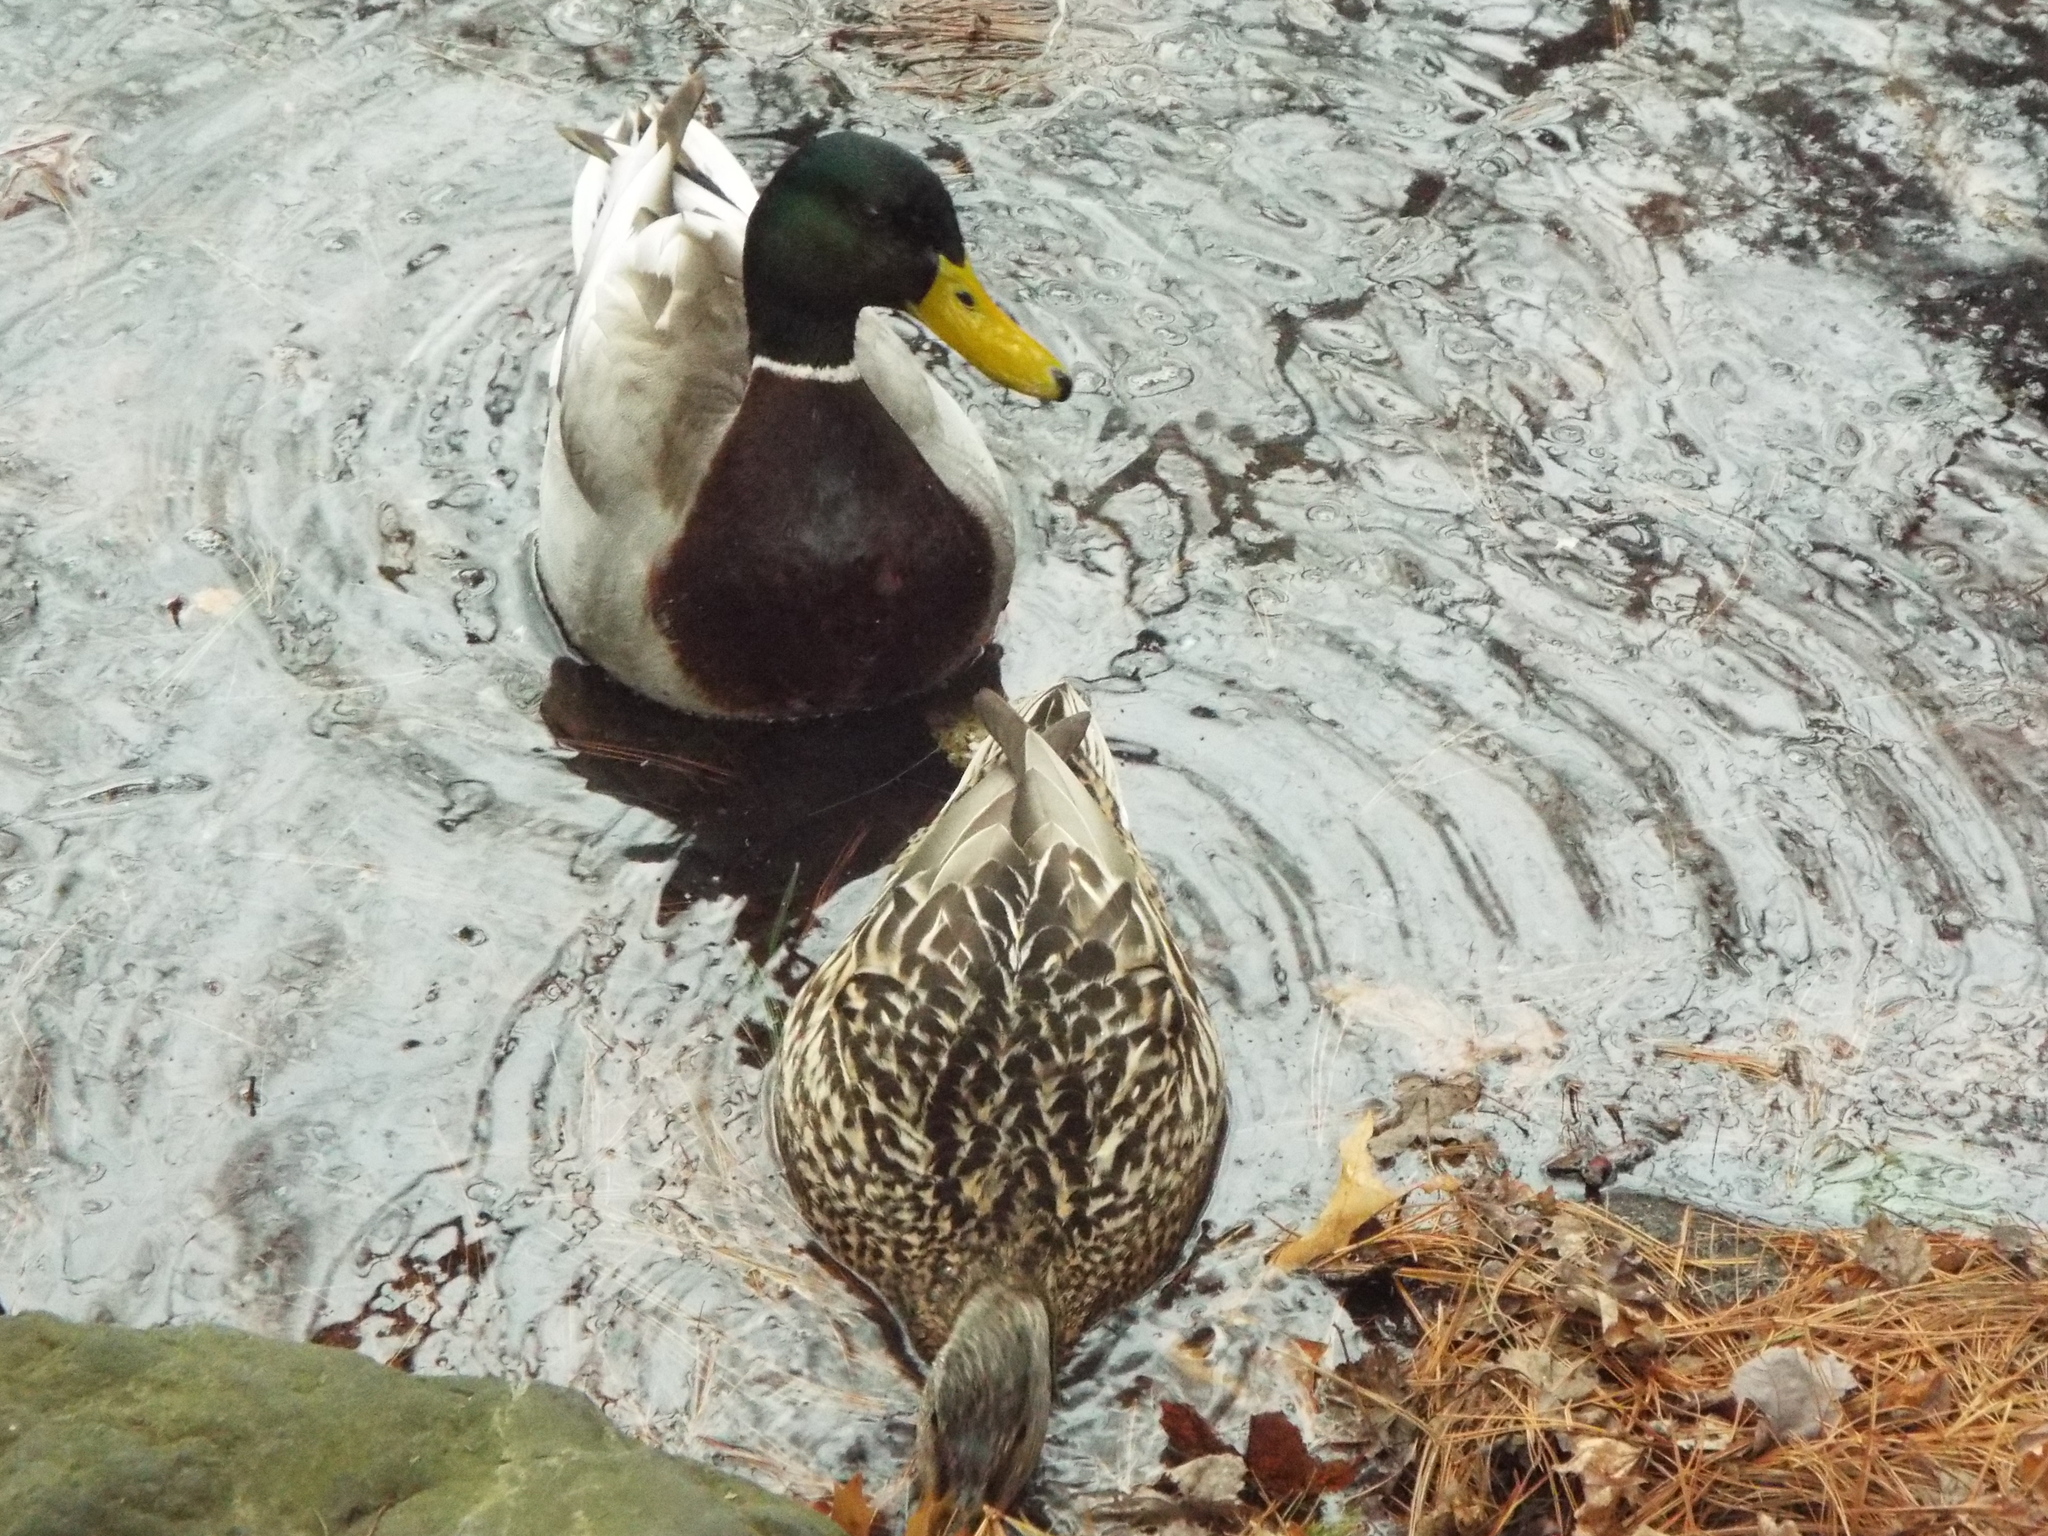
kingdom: Animalia
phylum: Chordata
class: Aves
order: Anseriformes
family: Anatidae
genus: Anas
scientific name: Anas platyrhynchos
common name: Mallard
